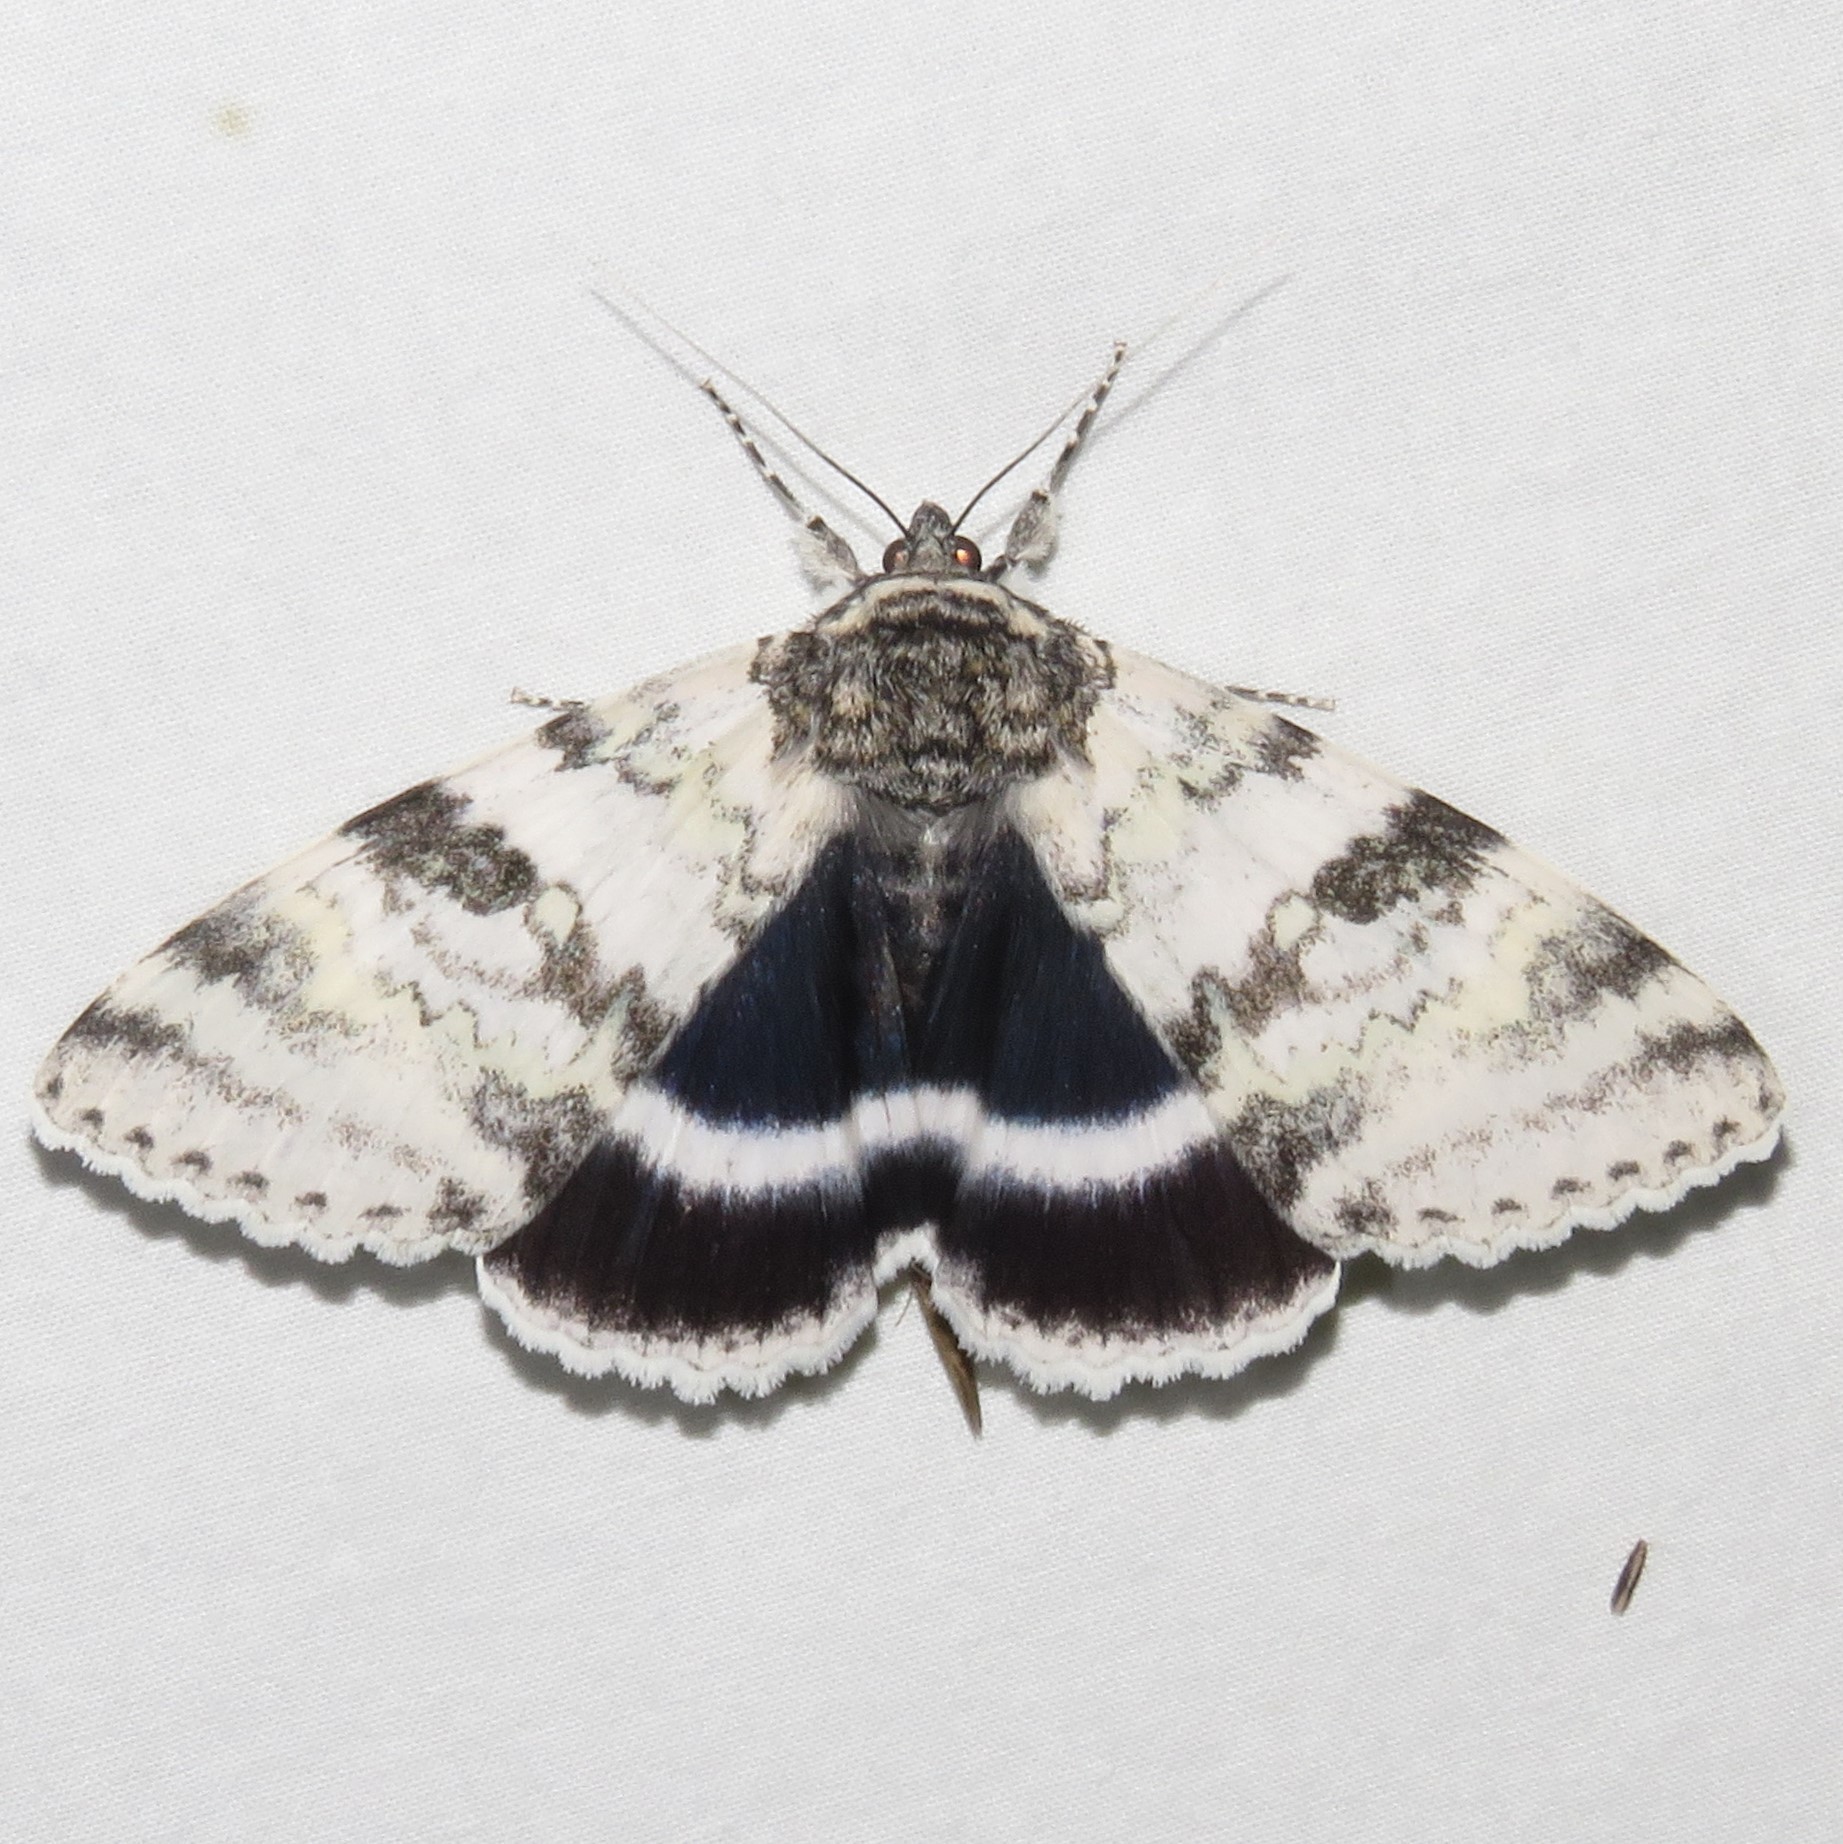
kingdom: Animalia
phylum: Arthropoda
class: Insecta
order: Lepidoptera
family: Erebidae
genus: Catocala
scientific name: Catocala relicta
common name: White underwing
